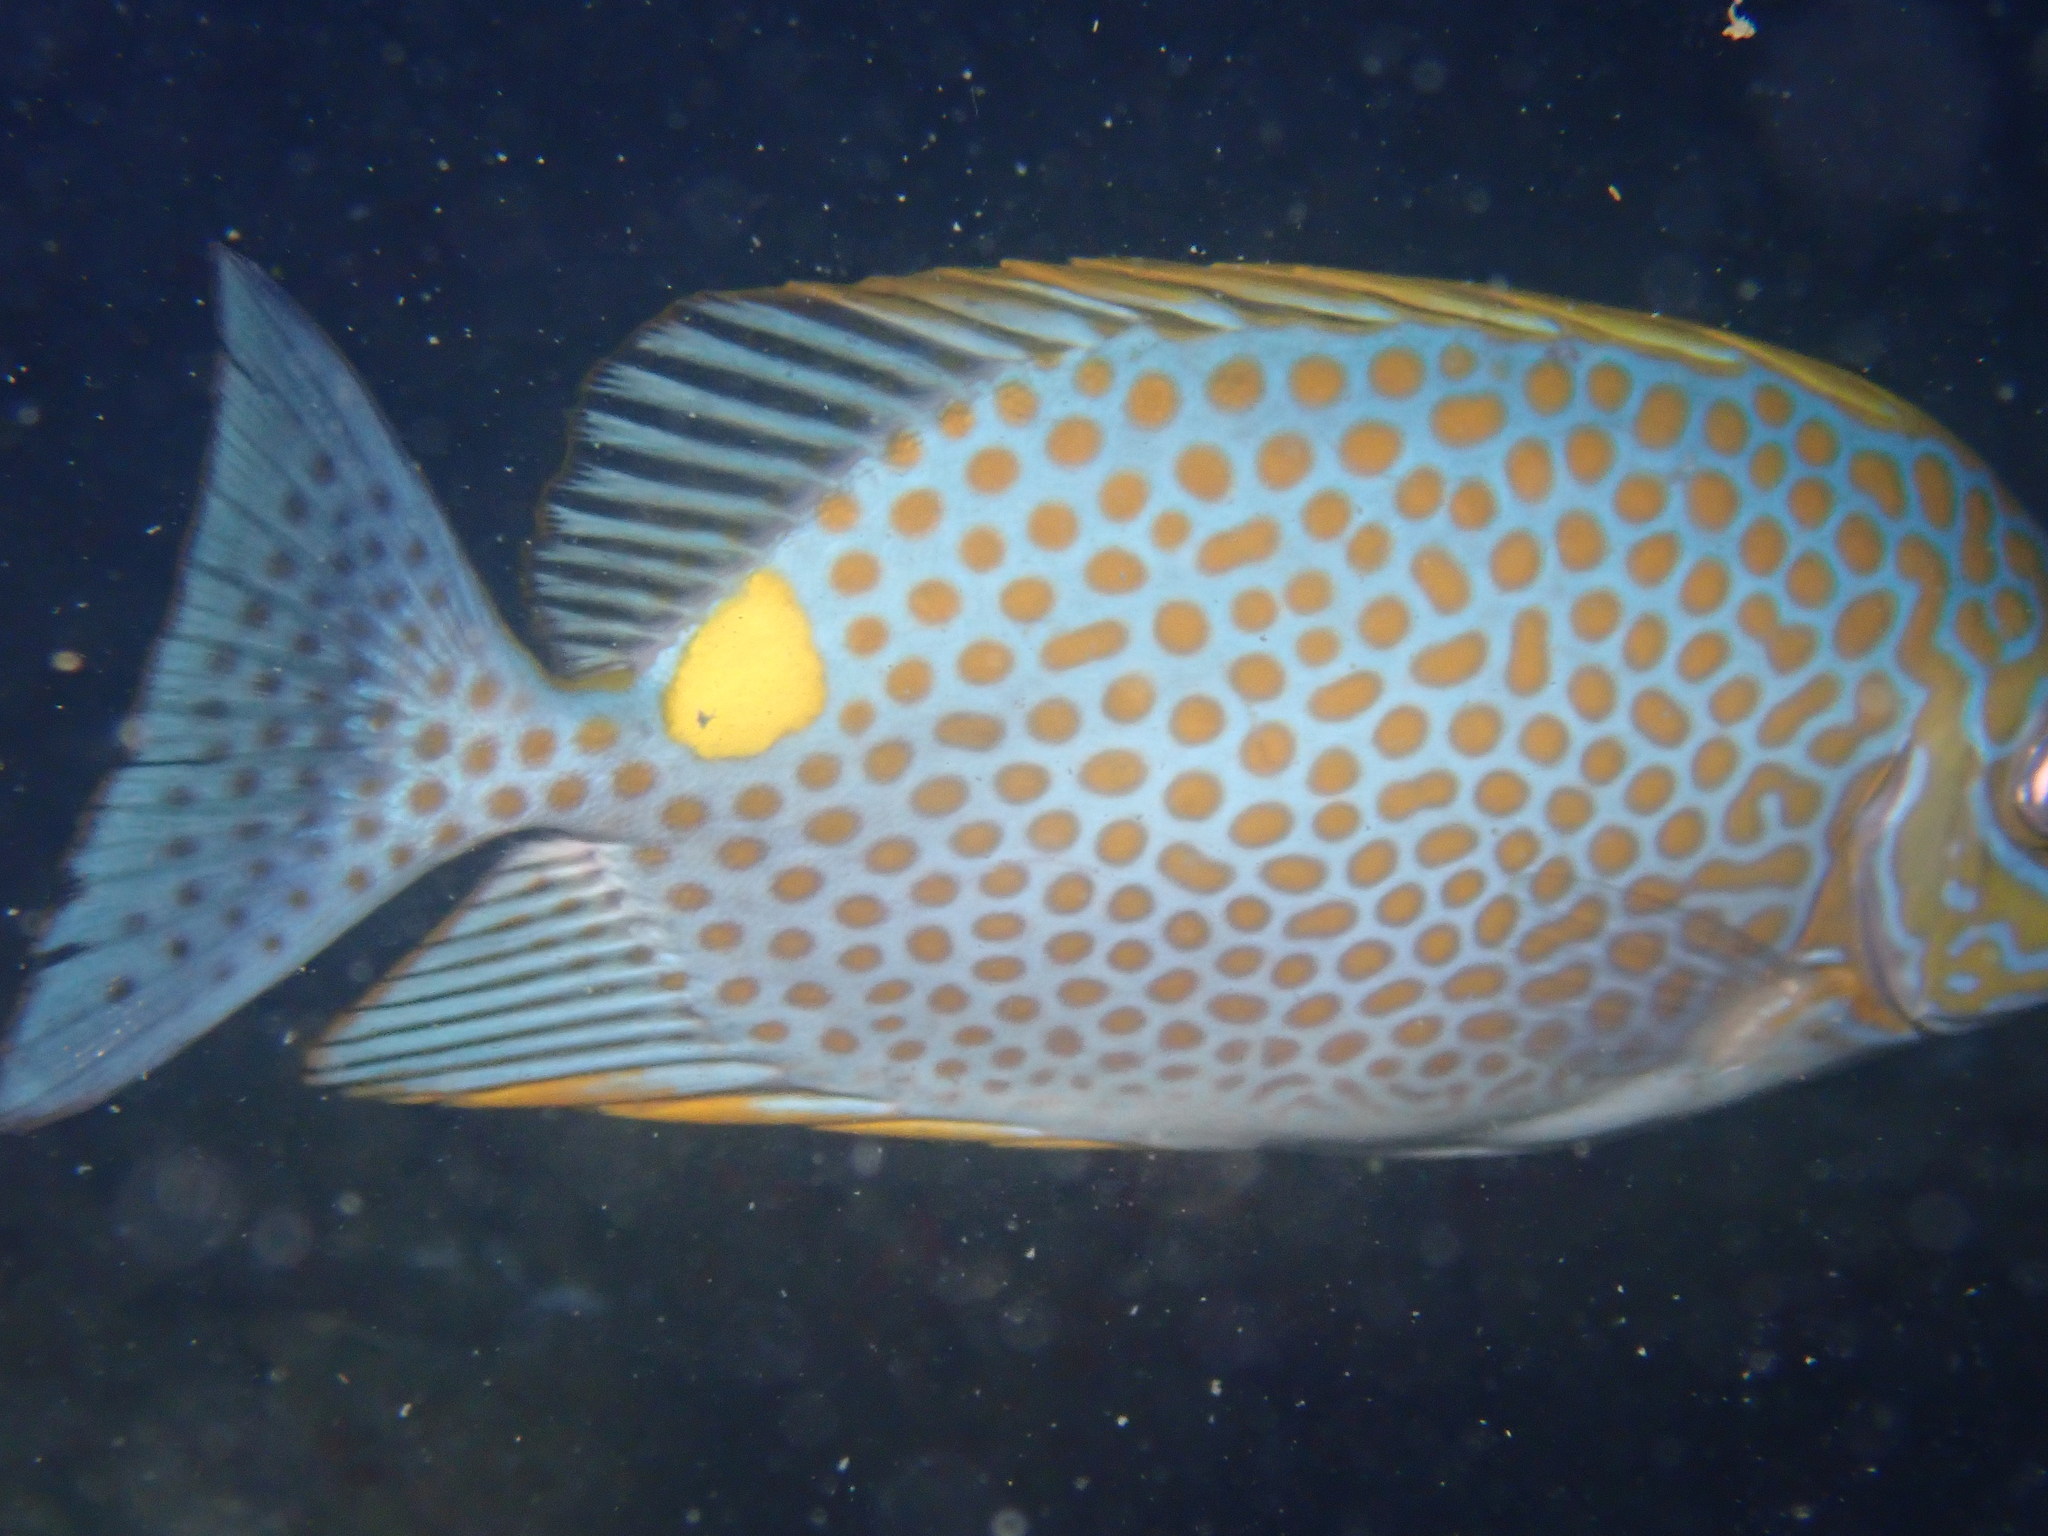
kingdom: Animalia
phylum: Chordata
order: Perciformes
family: Siganidae
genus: Siganus
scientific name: Siganus guttatus
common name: Golden rabbitfish
